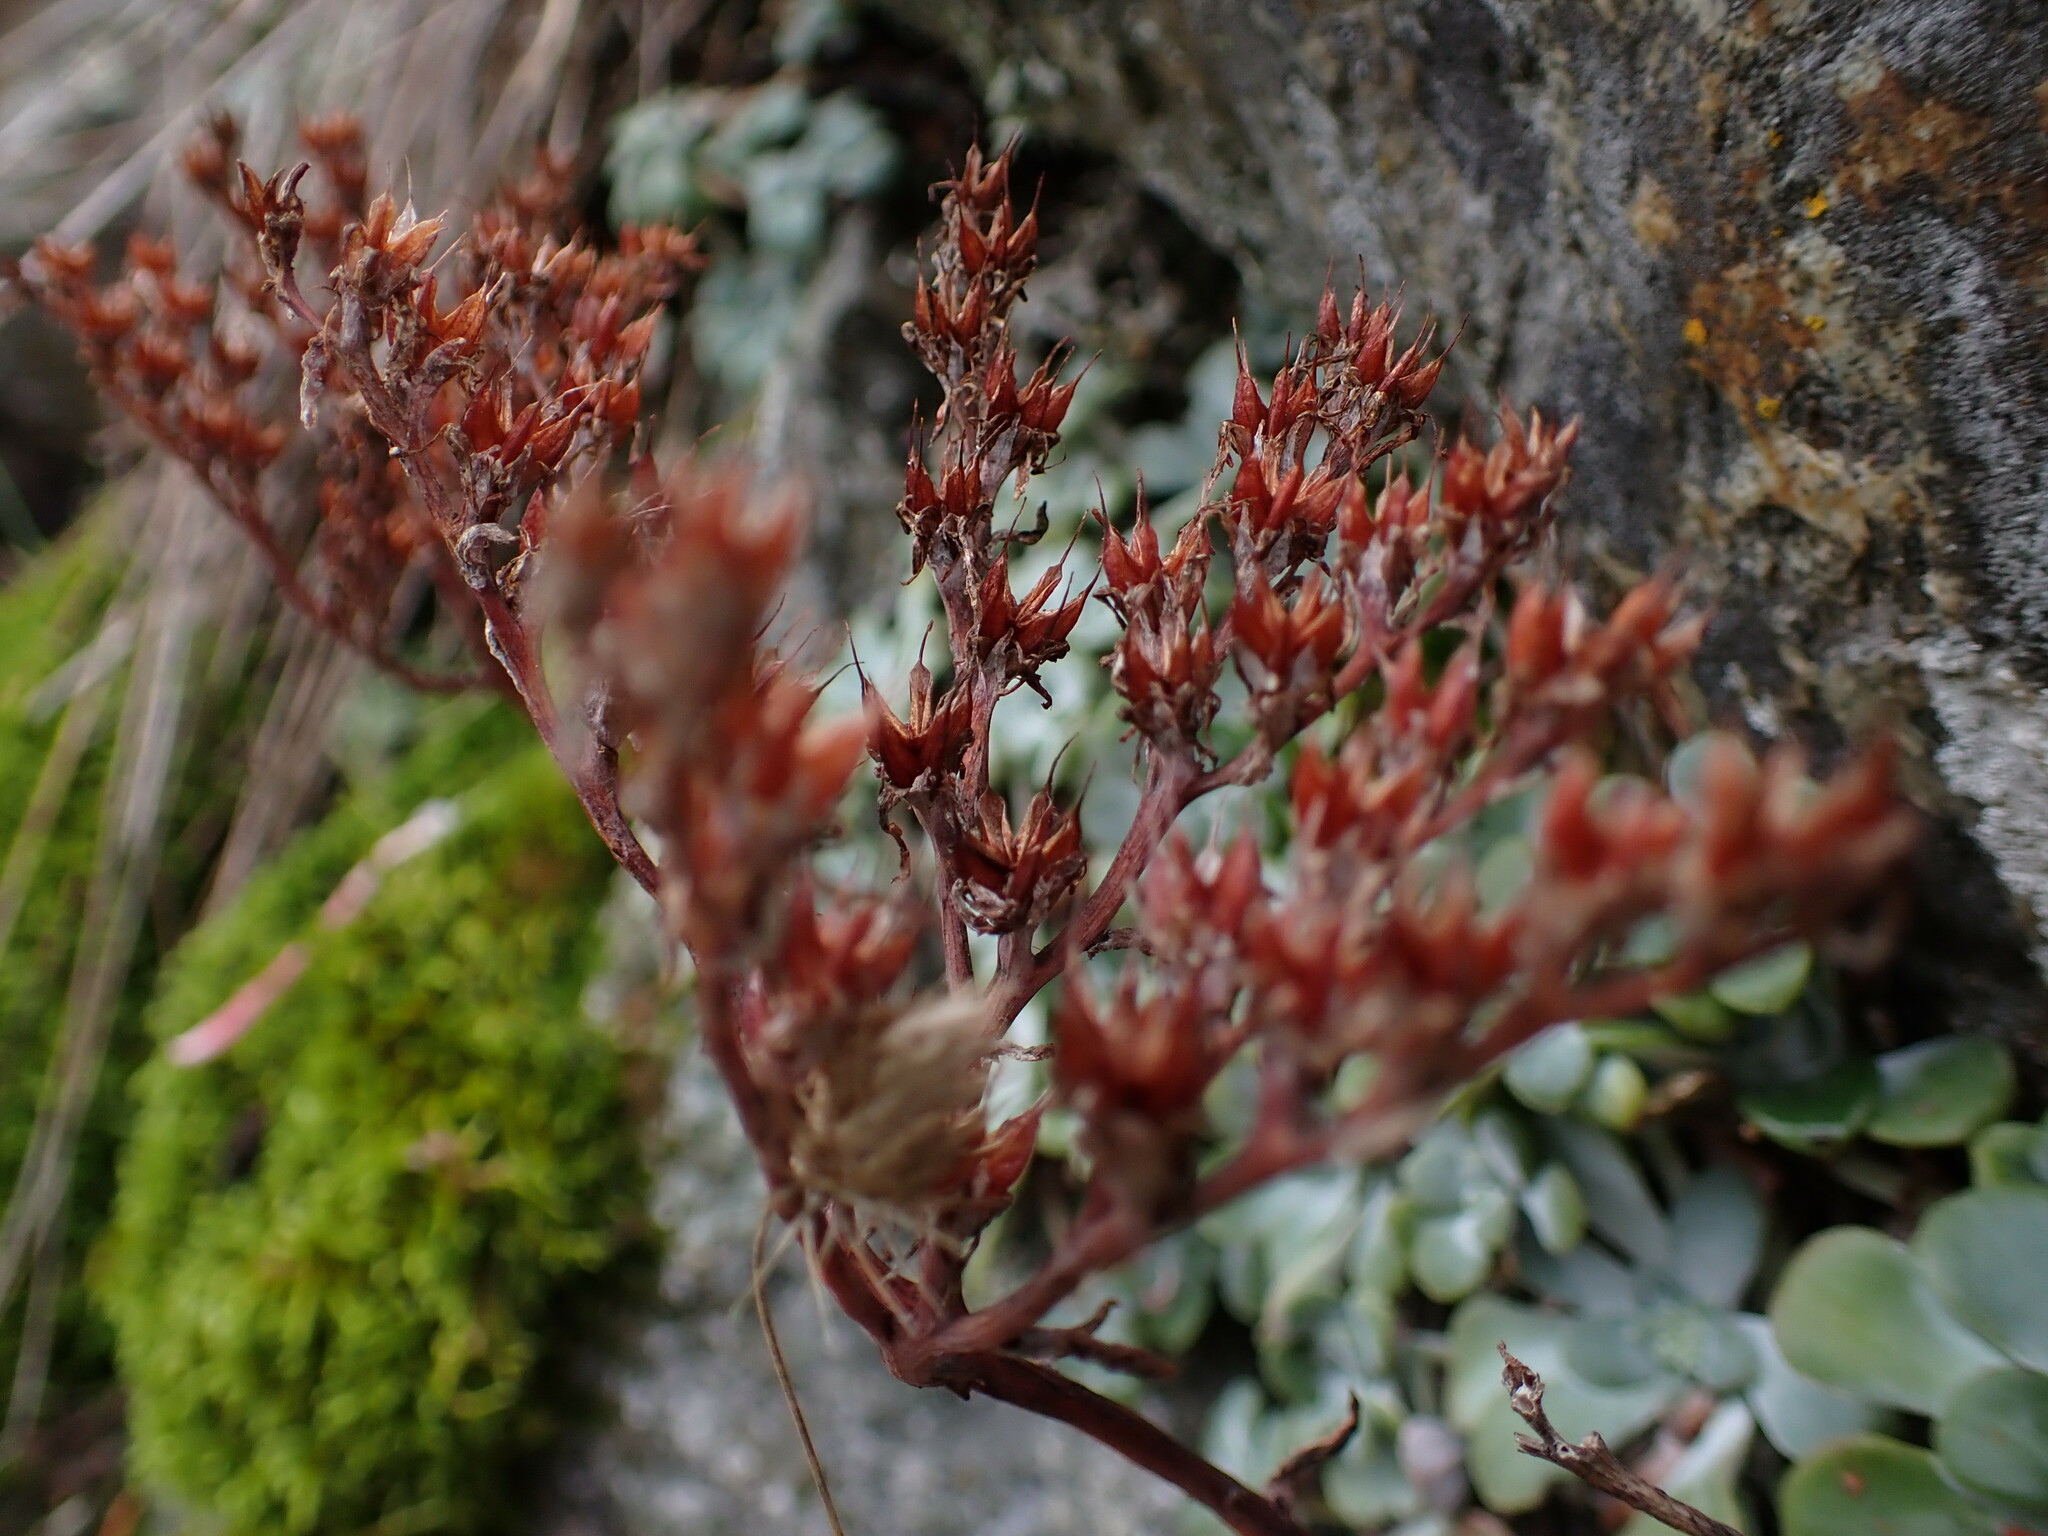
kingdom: Plantae
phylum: Tracheophyta
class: Magnoliopsida
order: Saxifragales
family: Crassulaceae
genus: Sedum
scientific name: Sedum spathulifolium
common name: Colorado stonecrop
